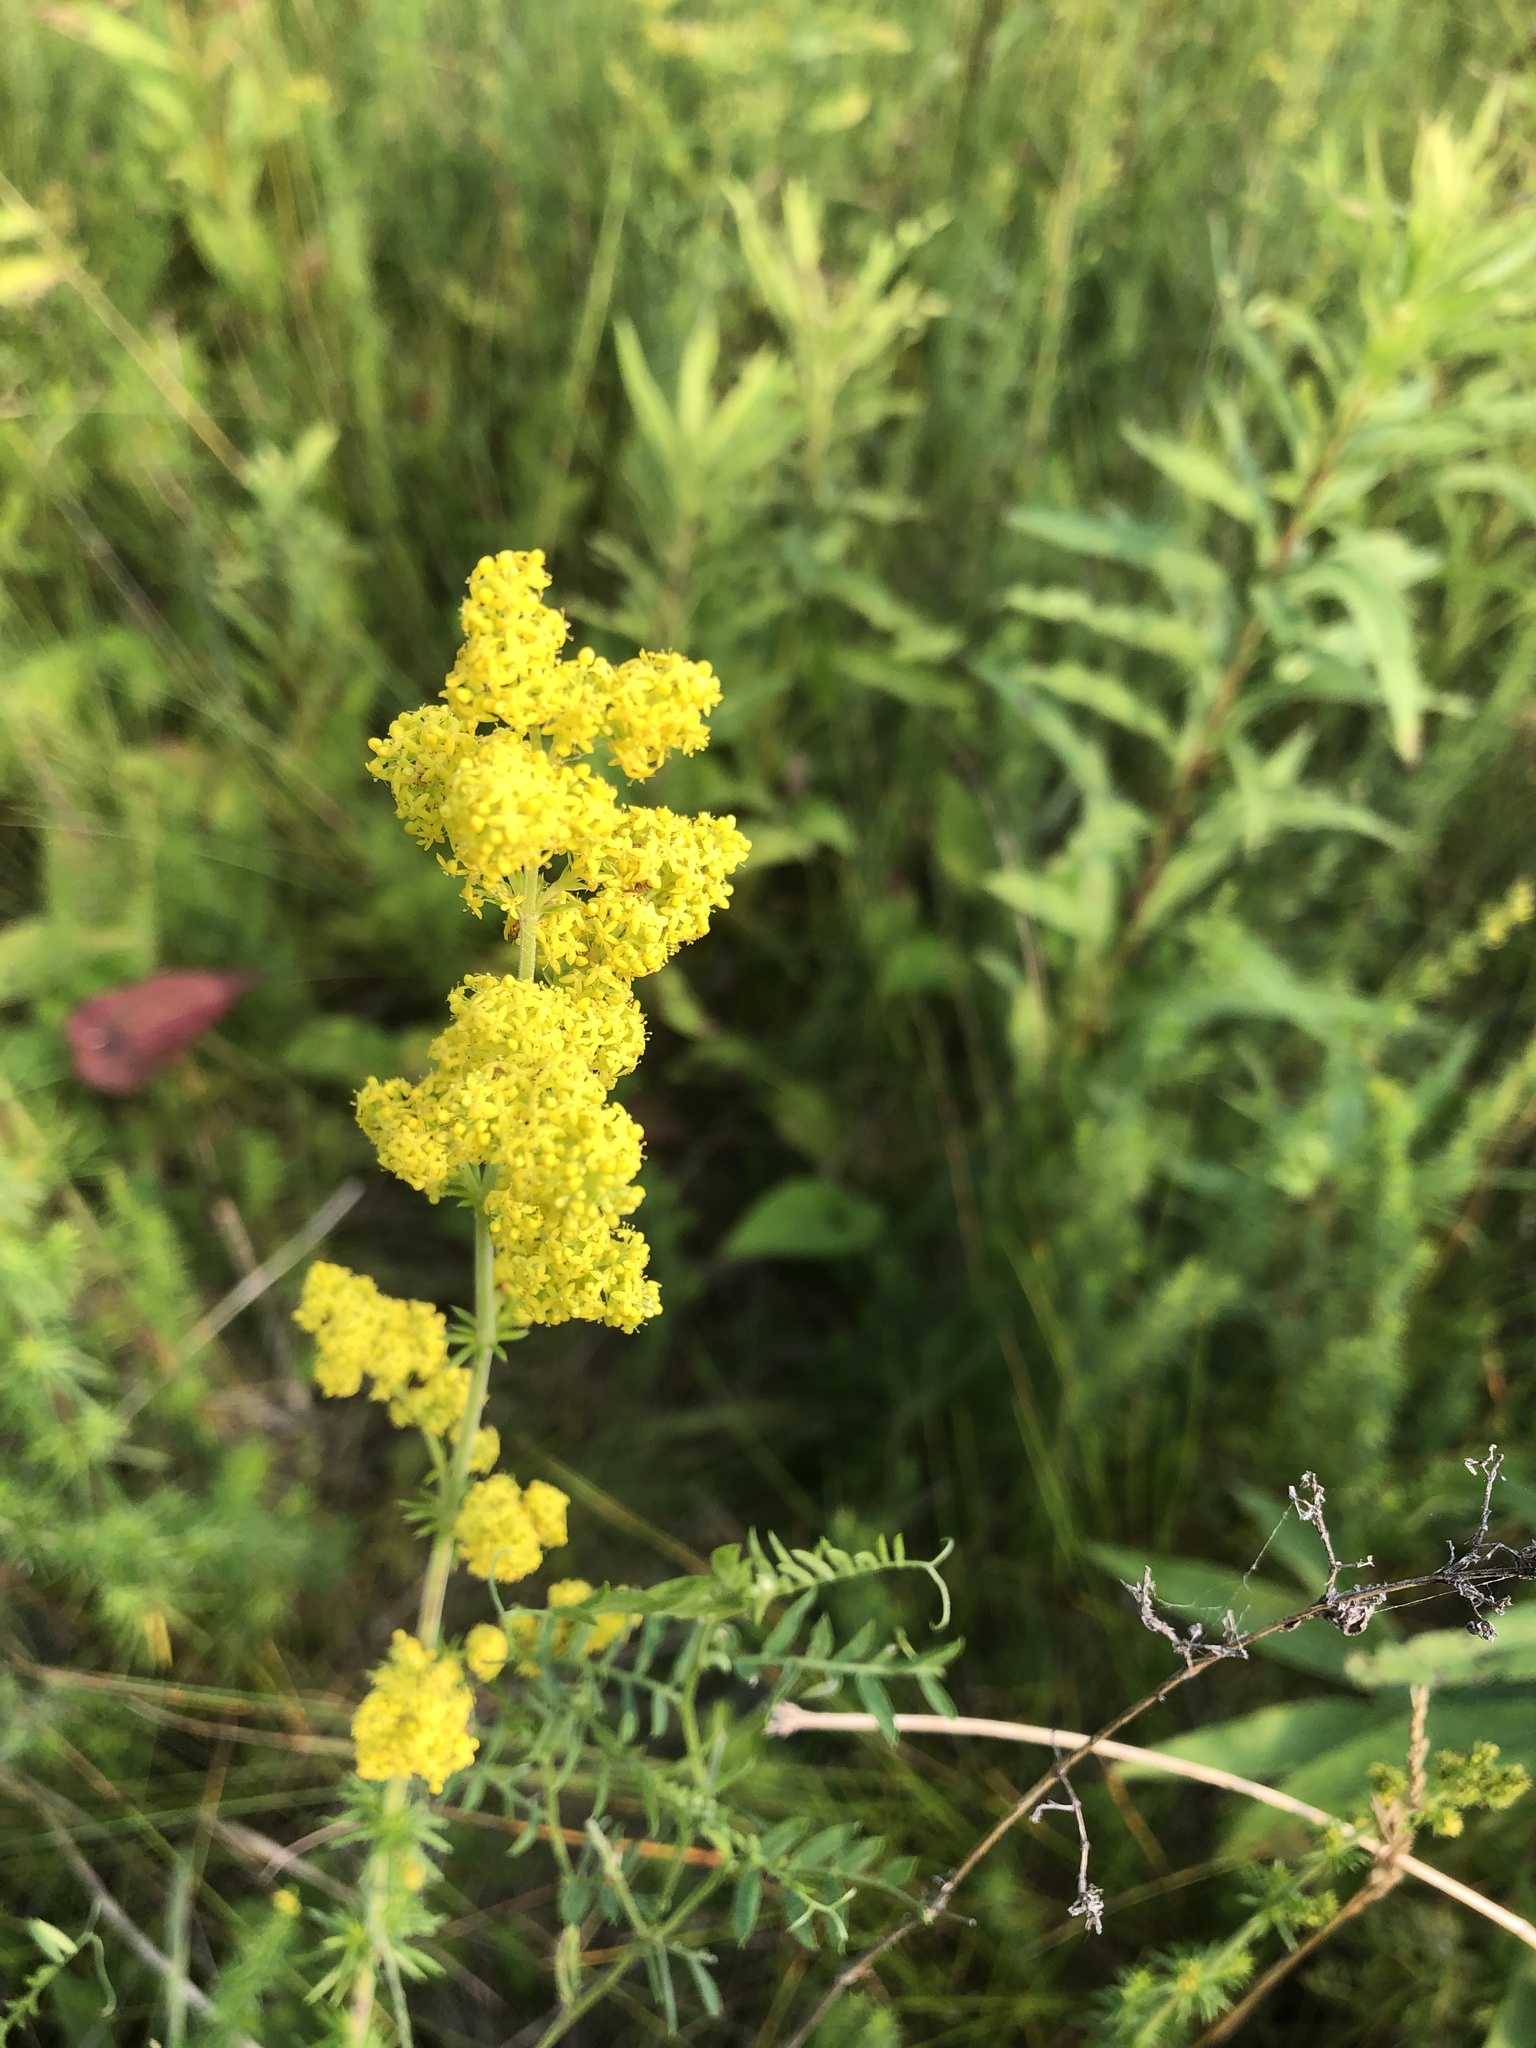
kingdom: Plantae
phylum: Tracheophyta
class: Magnoliopsida
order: Gentianales
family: Rubiaceae
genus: Galium
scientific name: Galium verum
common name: Lady's bedstraw
